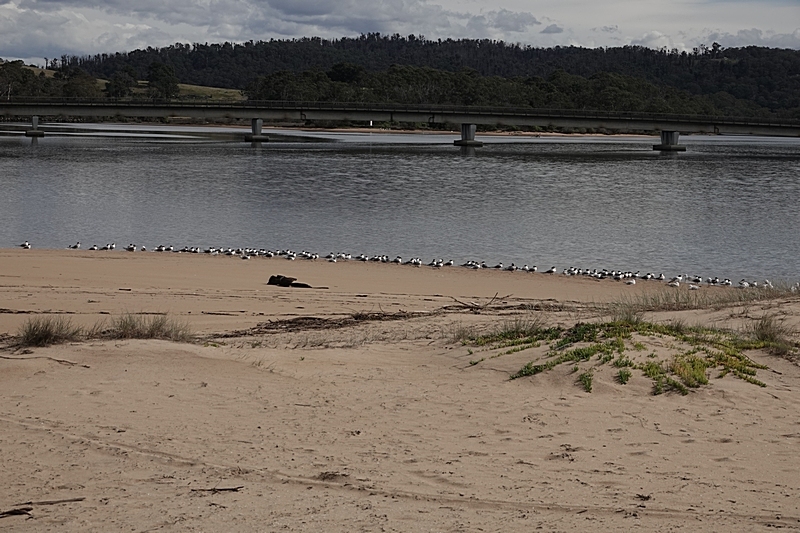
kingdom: Animalia
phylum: Chordata
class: Aves
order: Charadriiformes
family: Laridae
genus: Thalasseus
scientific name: Thalasseus bergii
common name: Greater crested tern
